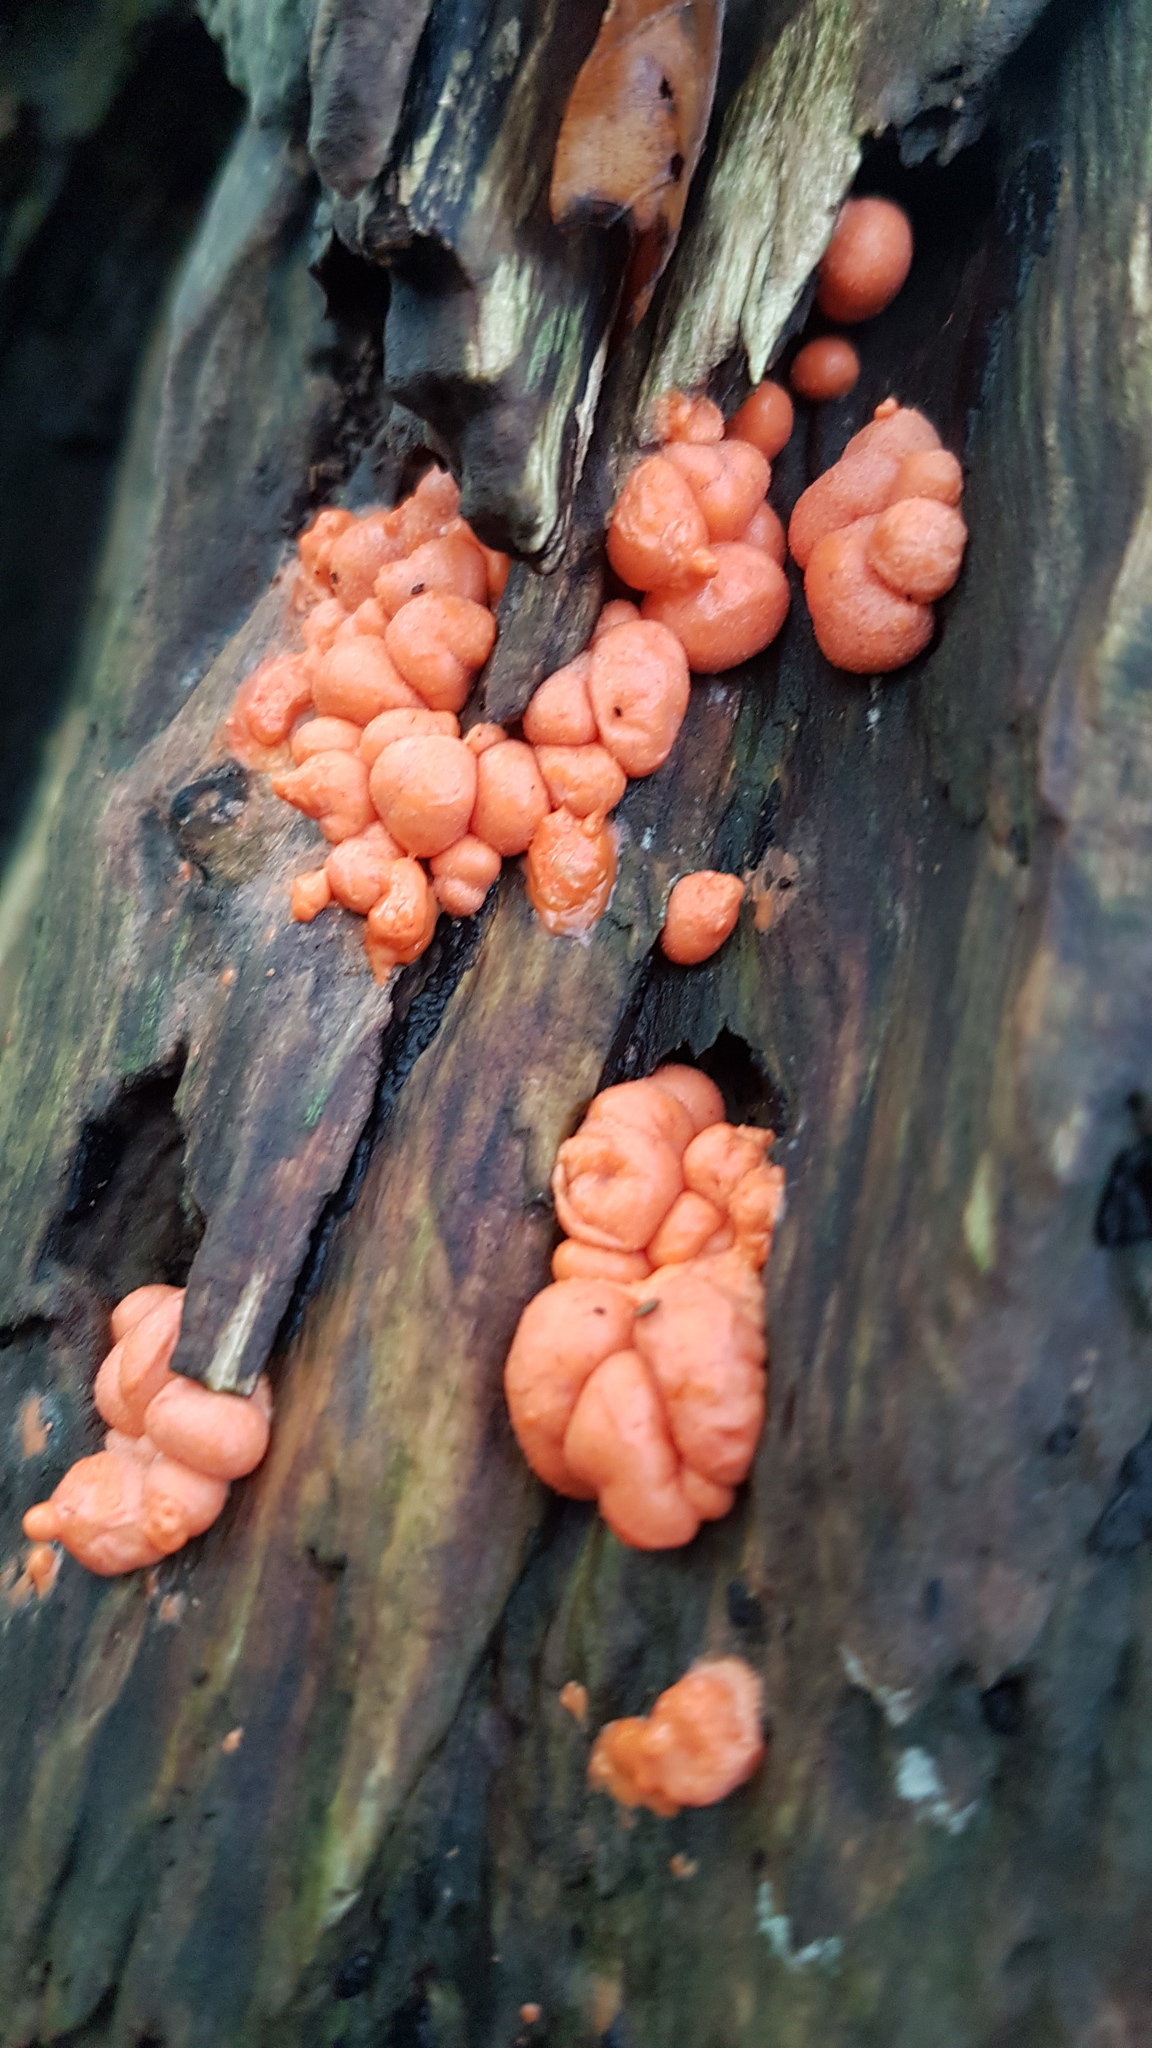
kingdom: Protozoa
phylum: Mycetozoa
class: Myxomycetes
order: Cribrariales
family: Tubiferaceae
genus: Lycogala
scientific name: Lycogala epidendrum
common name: Wolf's milk
